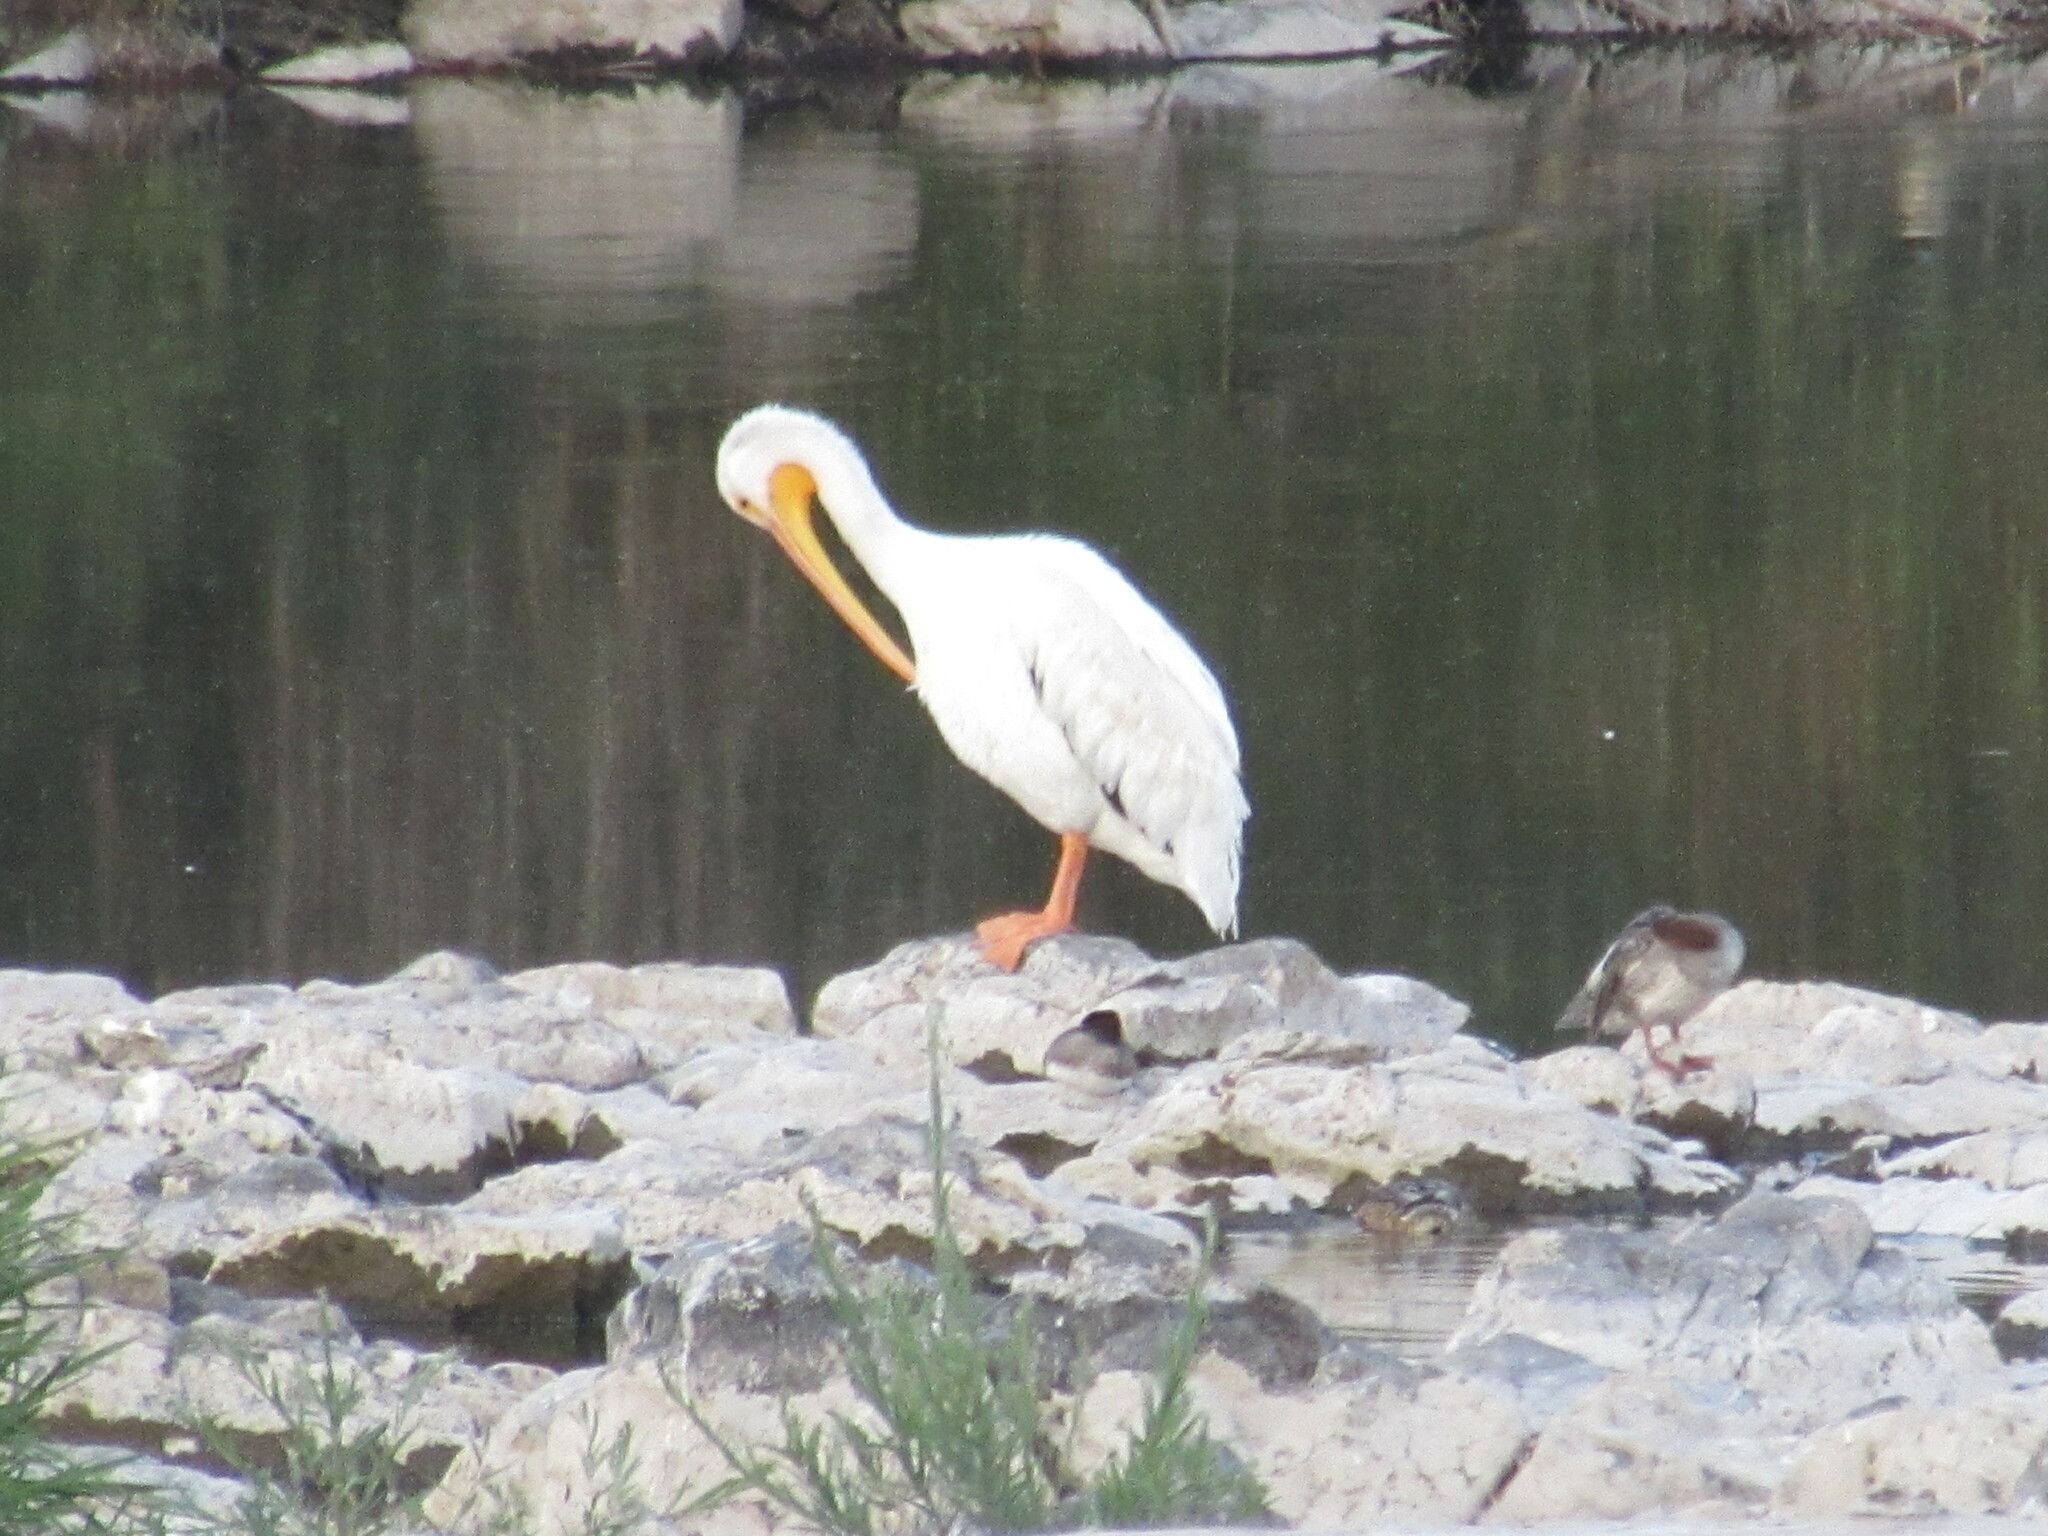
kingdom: Animalia
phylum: Chordata
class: Aves
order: Pelecaniformes
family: Pelecanidae
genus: Pelecanus
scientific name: Pelecanus erythrorhynchos
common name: American white pelican
